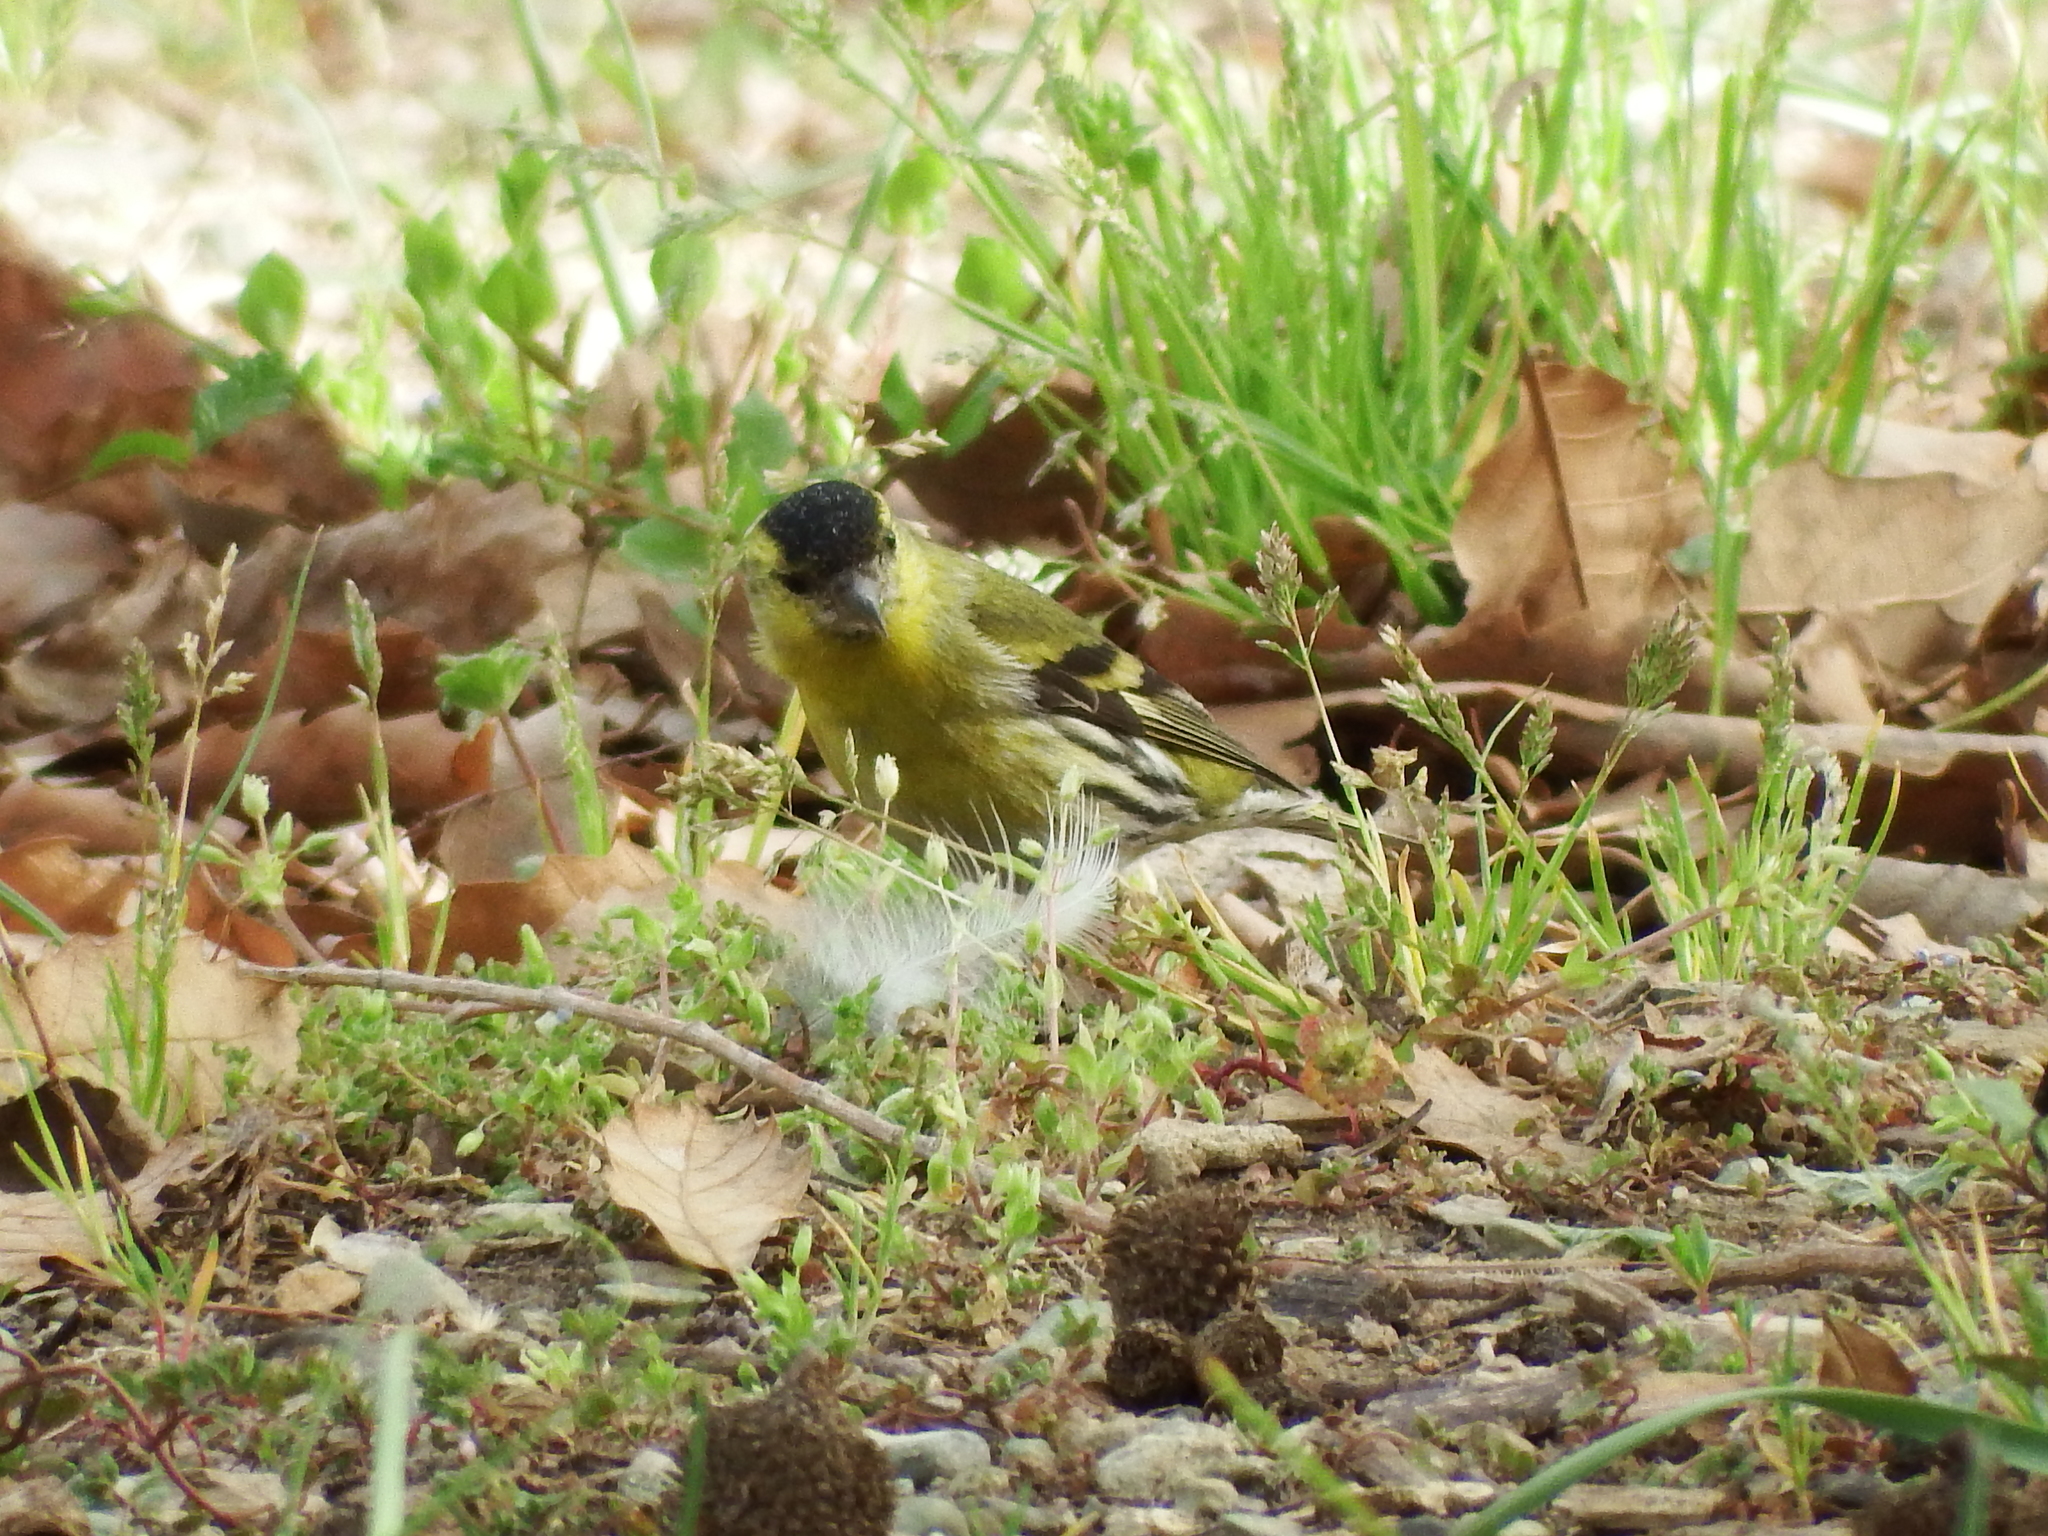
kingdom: Animalia
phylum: Chordata
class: Aves
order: Passeriformes
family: Fringillidae
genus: Spinus
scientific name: Spinus spinus
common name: Eurasian siskin
